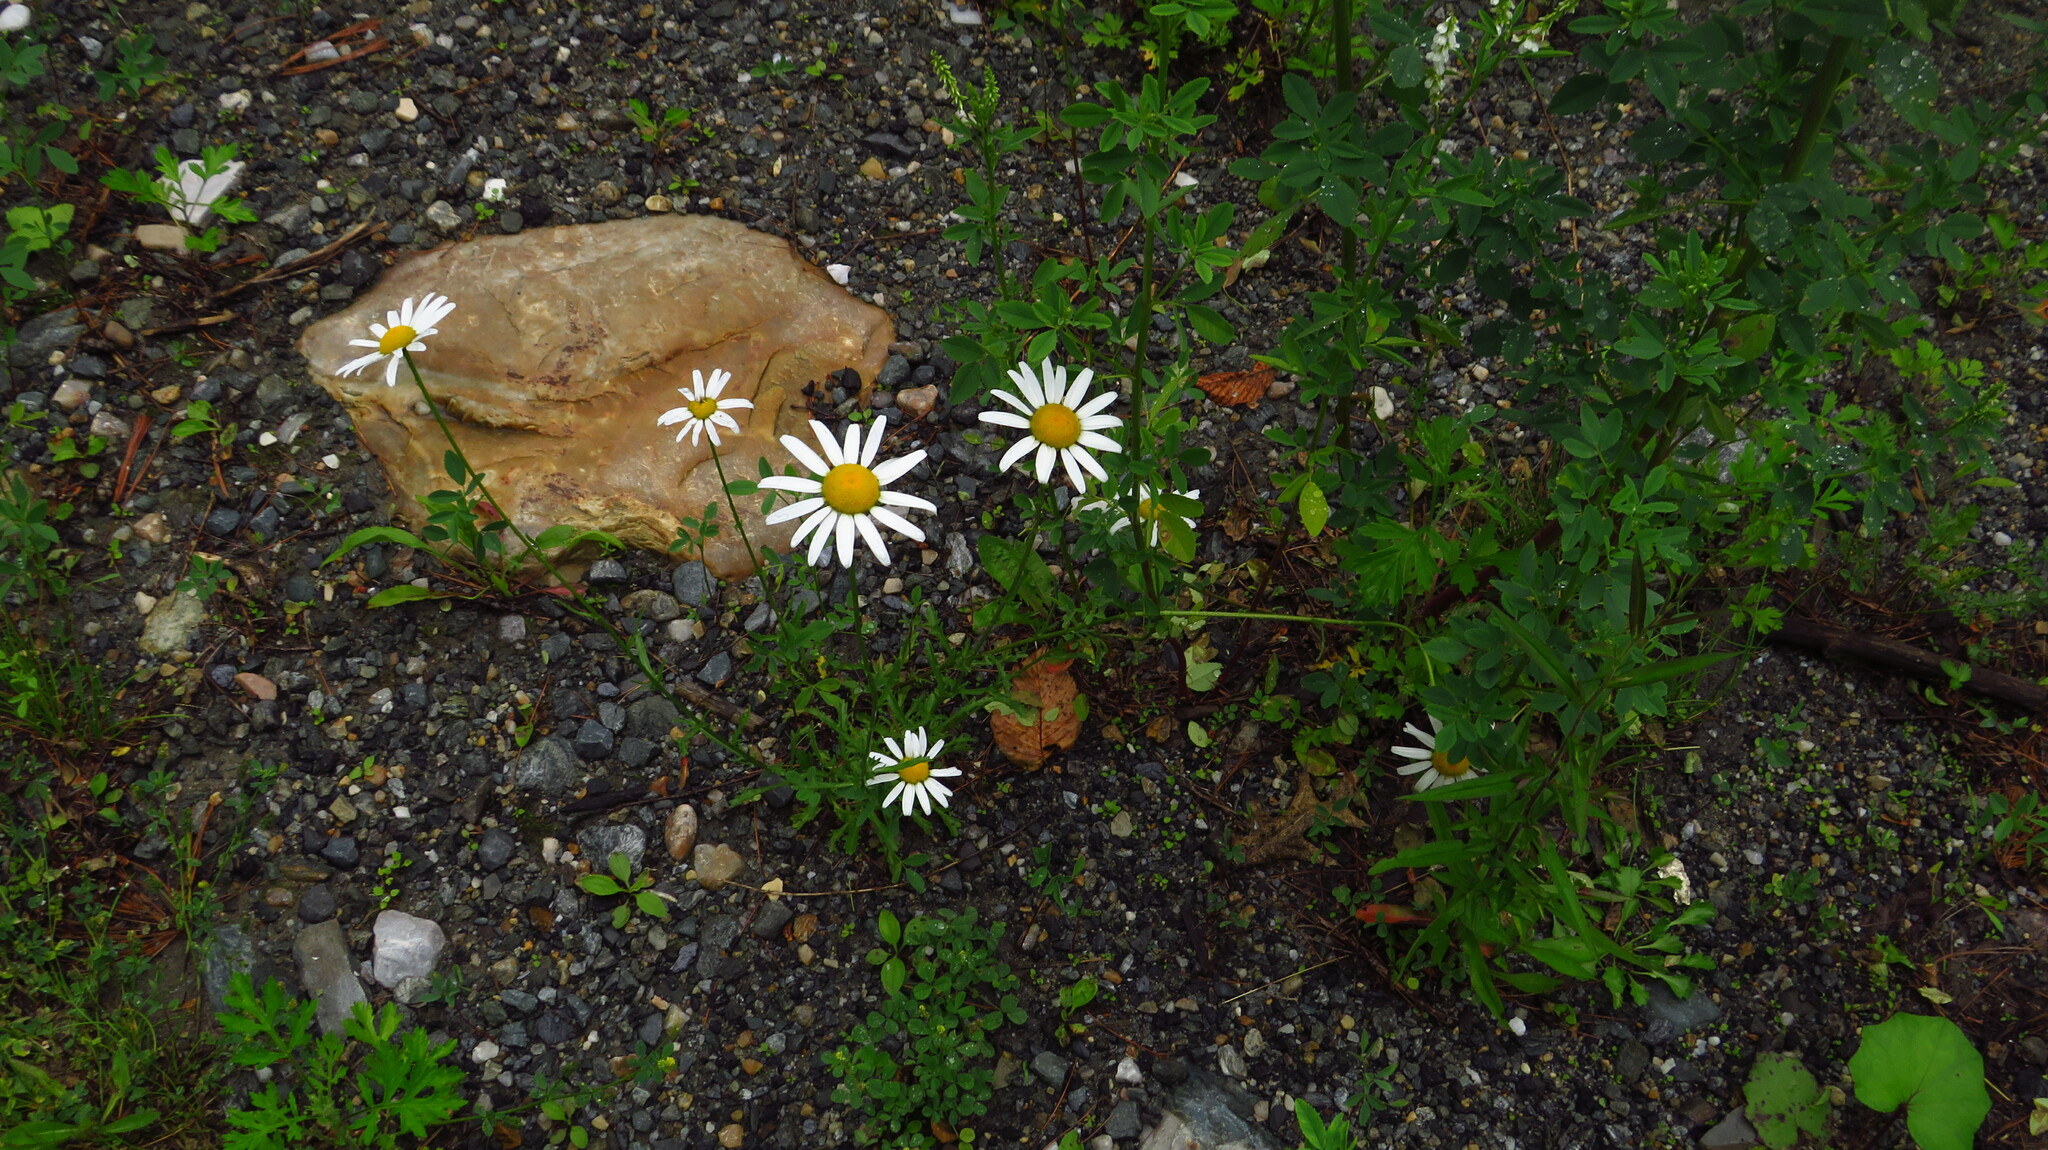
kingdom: Plantae
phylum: Tracheophyta
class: Magnoliopsida
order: Asterales
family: Asteraceae
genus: Leucanthemum
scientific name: Leucanthemum vulgare
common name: Oxeye daisy
